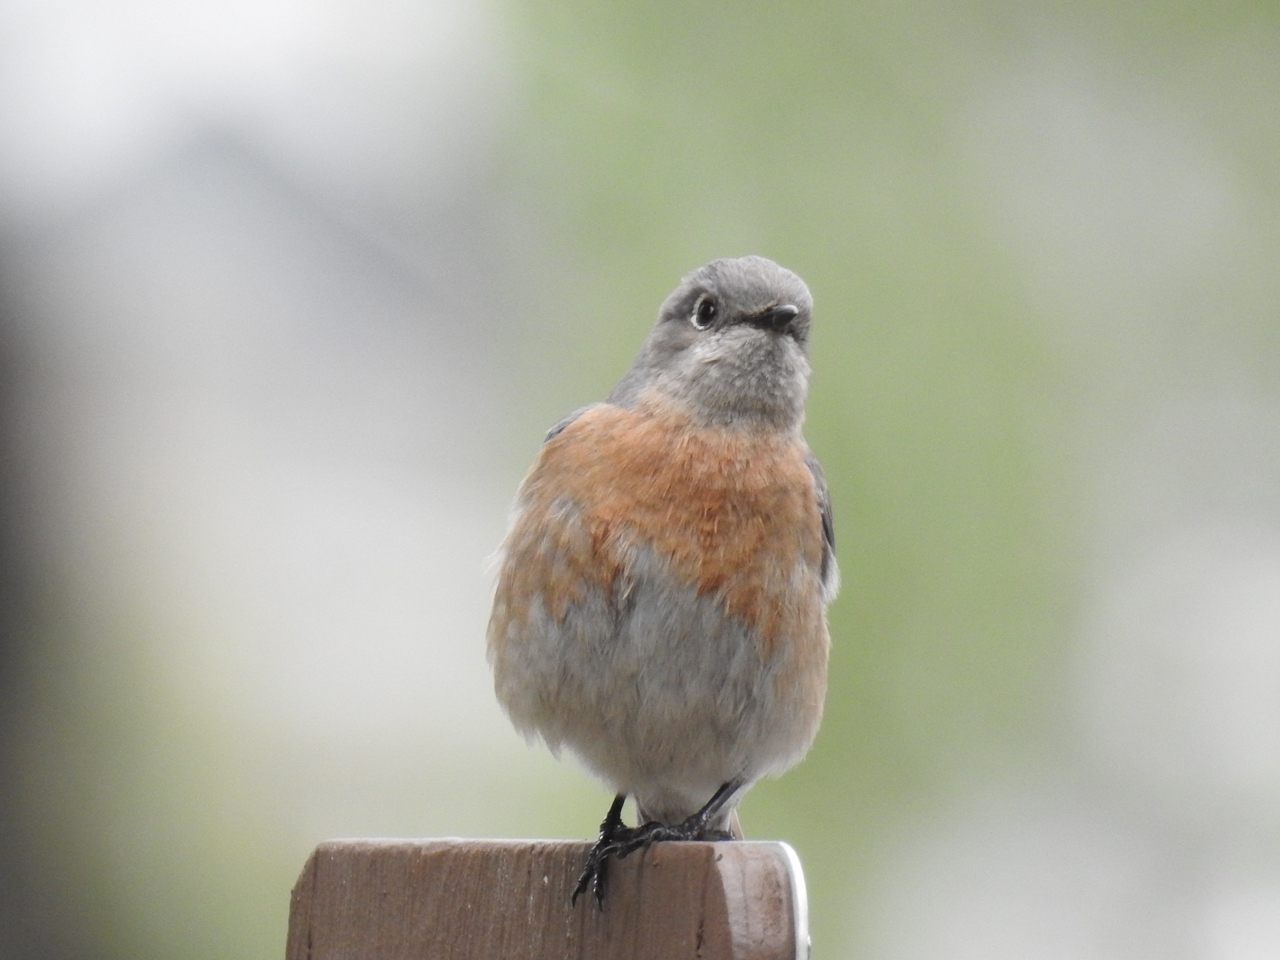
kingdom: Animalia
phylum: Chordata
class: Aves
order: Passeriformes
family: Turdidae
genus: Sialia
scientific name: Sialia mexicana
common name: Western bluebird
